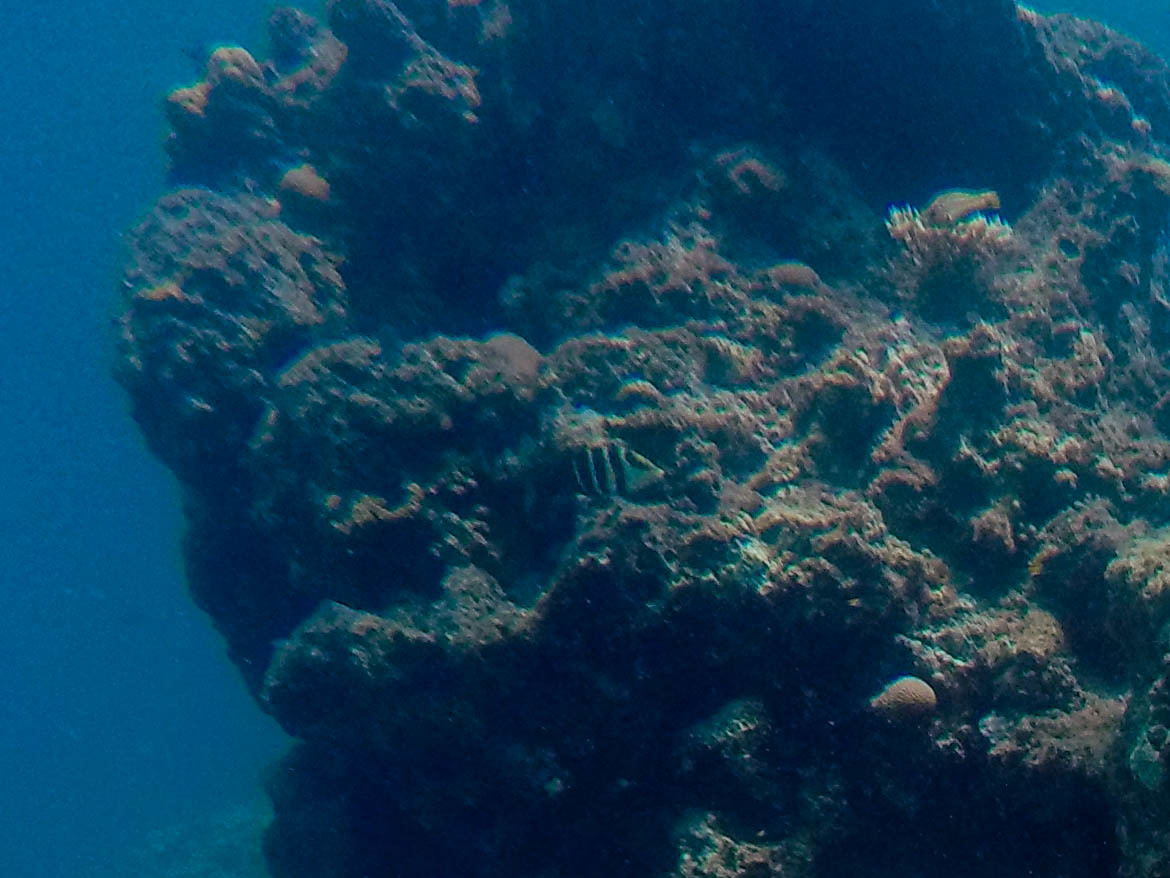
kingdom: Animalia
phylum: Chordata
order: Perciformes
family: Labridae
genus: Hemigymnus
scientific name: Hemigymnus sexfasciatus
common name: Barred thicklip
